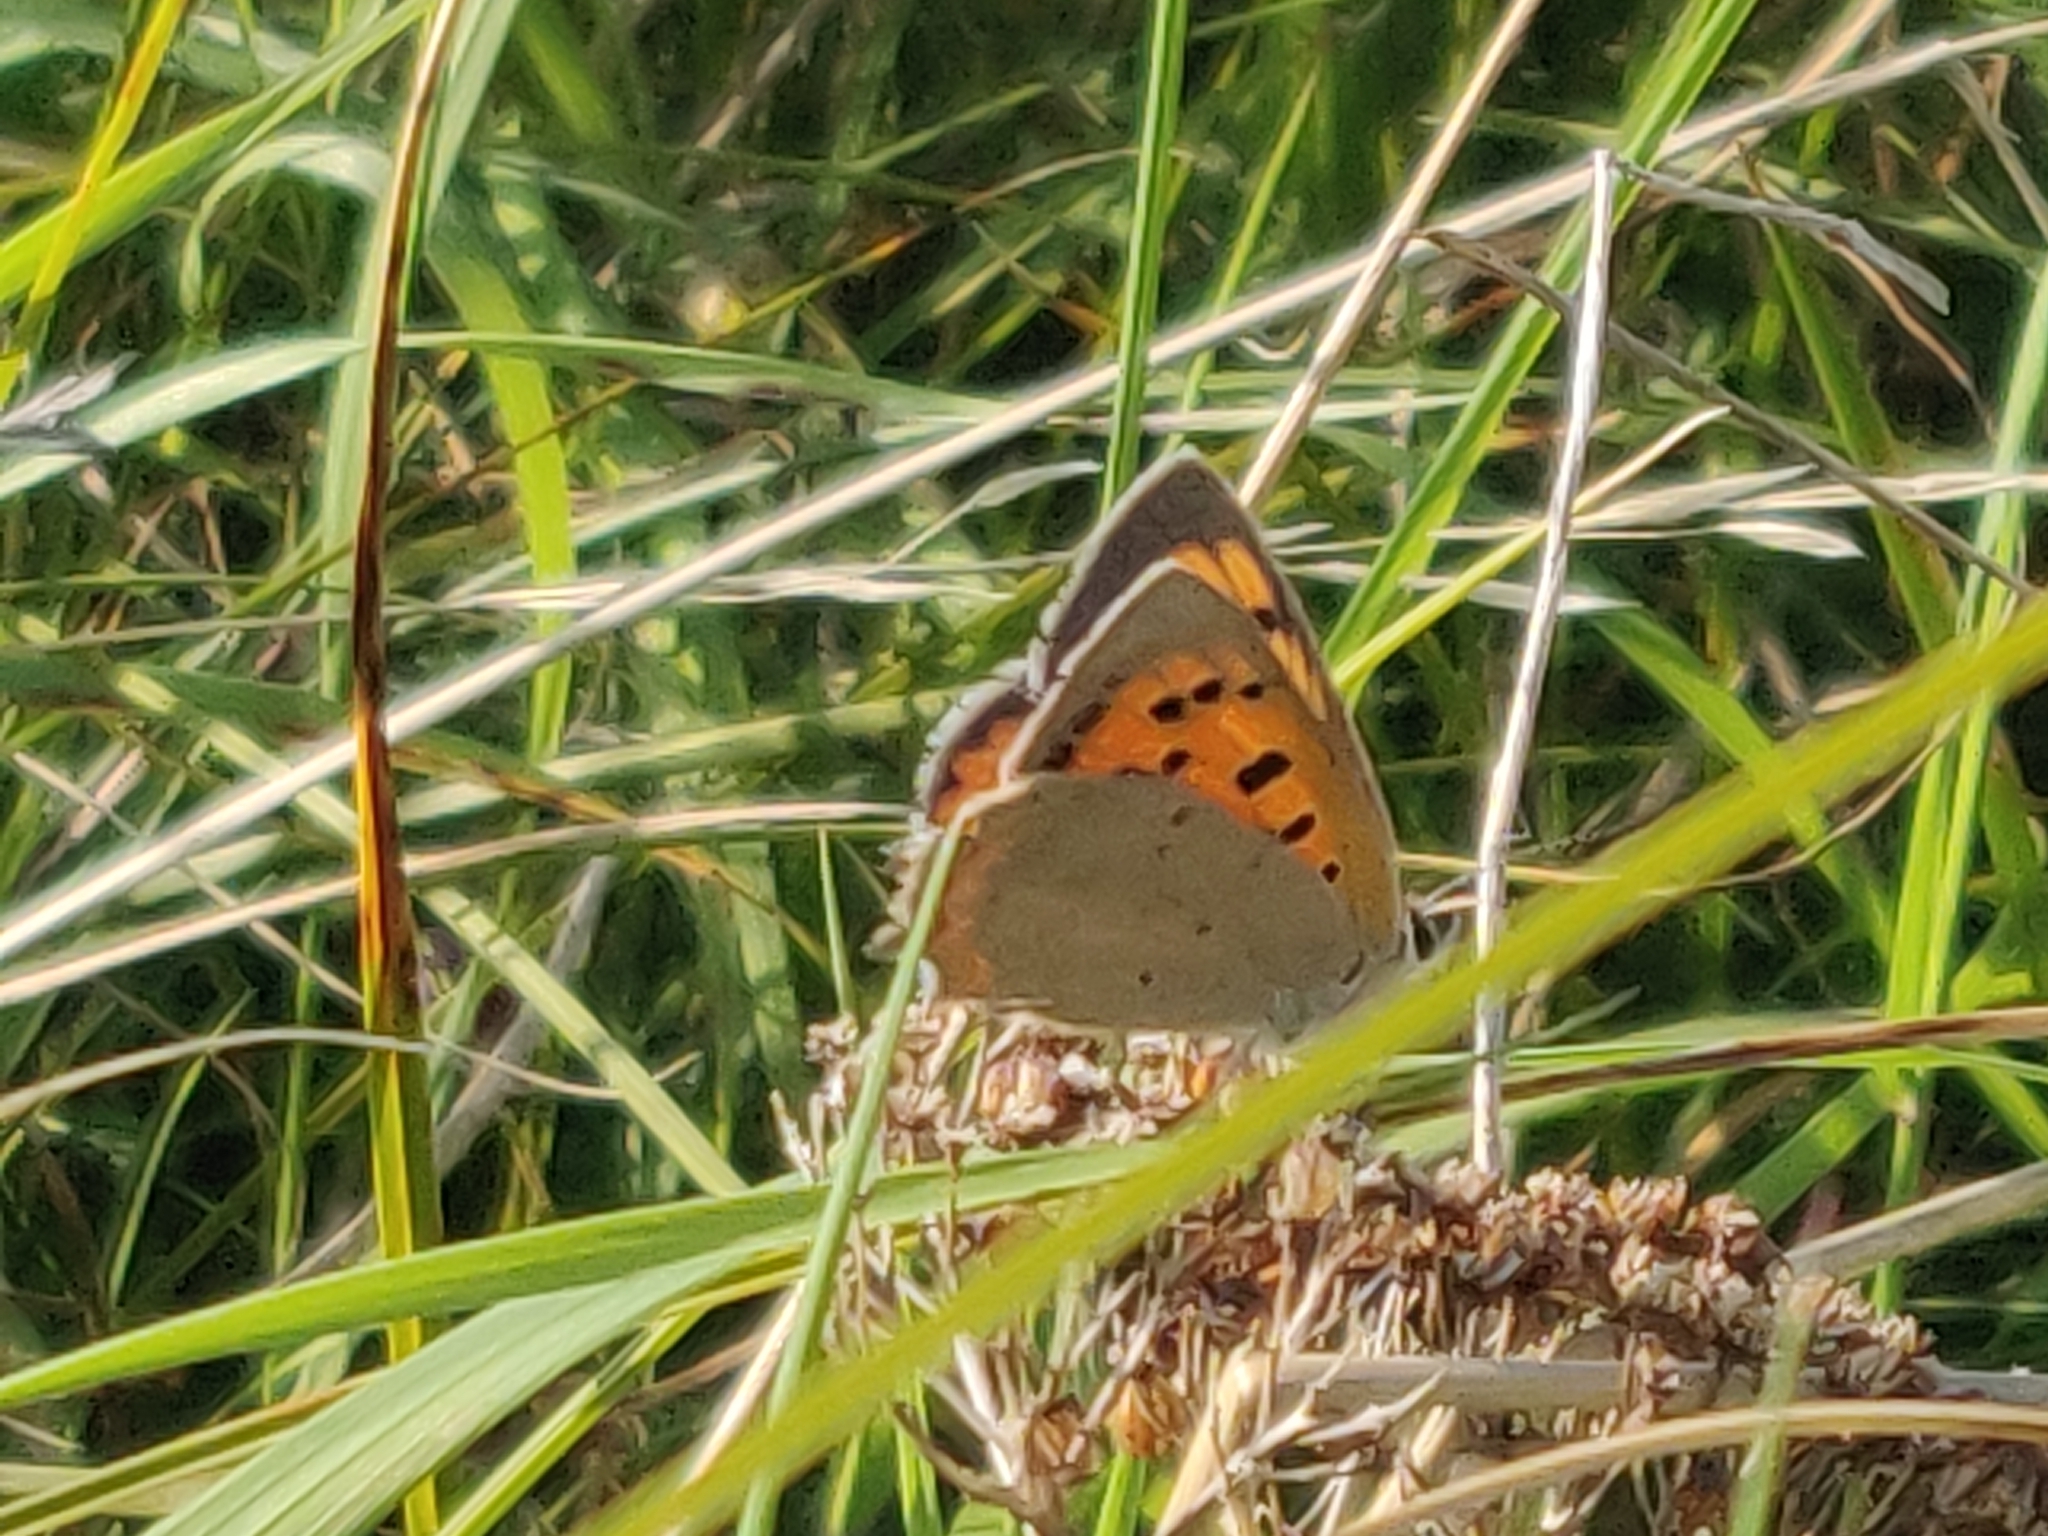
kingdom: Animalia
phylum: Arthropoda
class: Insecta
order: Lepidoptera
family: Lycaenidae
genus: Lycaena
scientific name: Lycaena phlaeas
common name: Small copper
